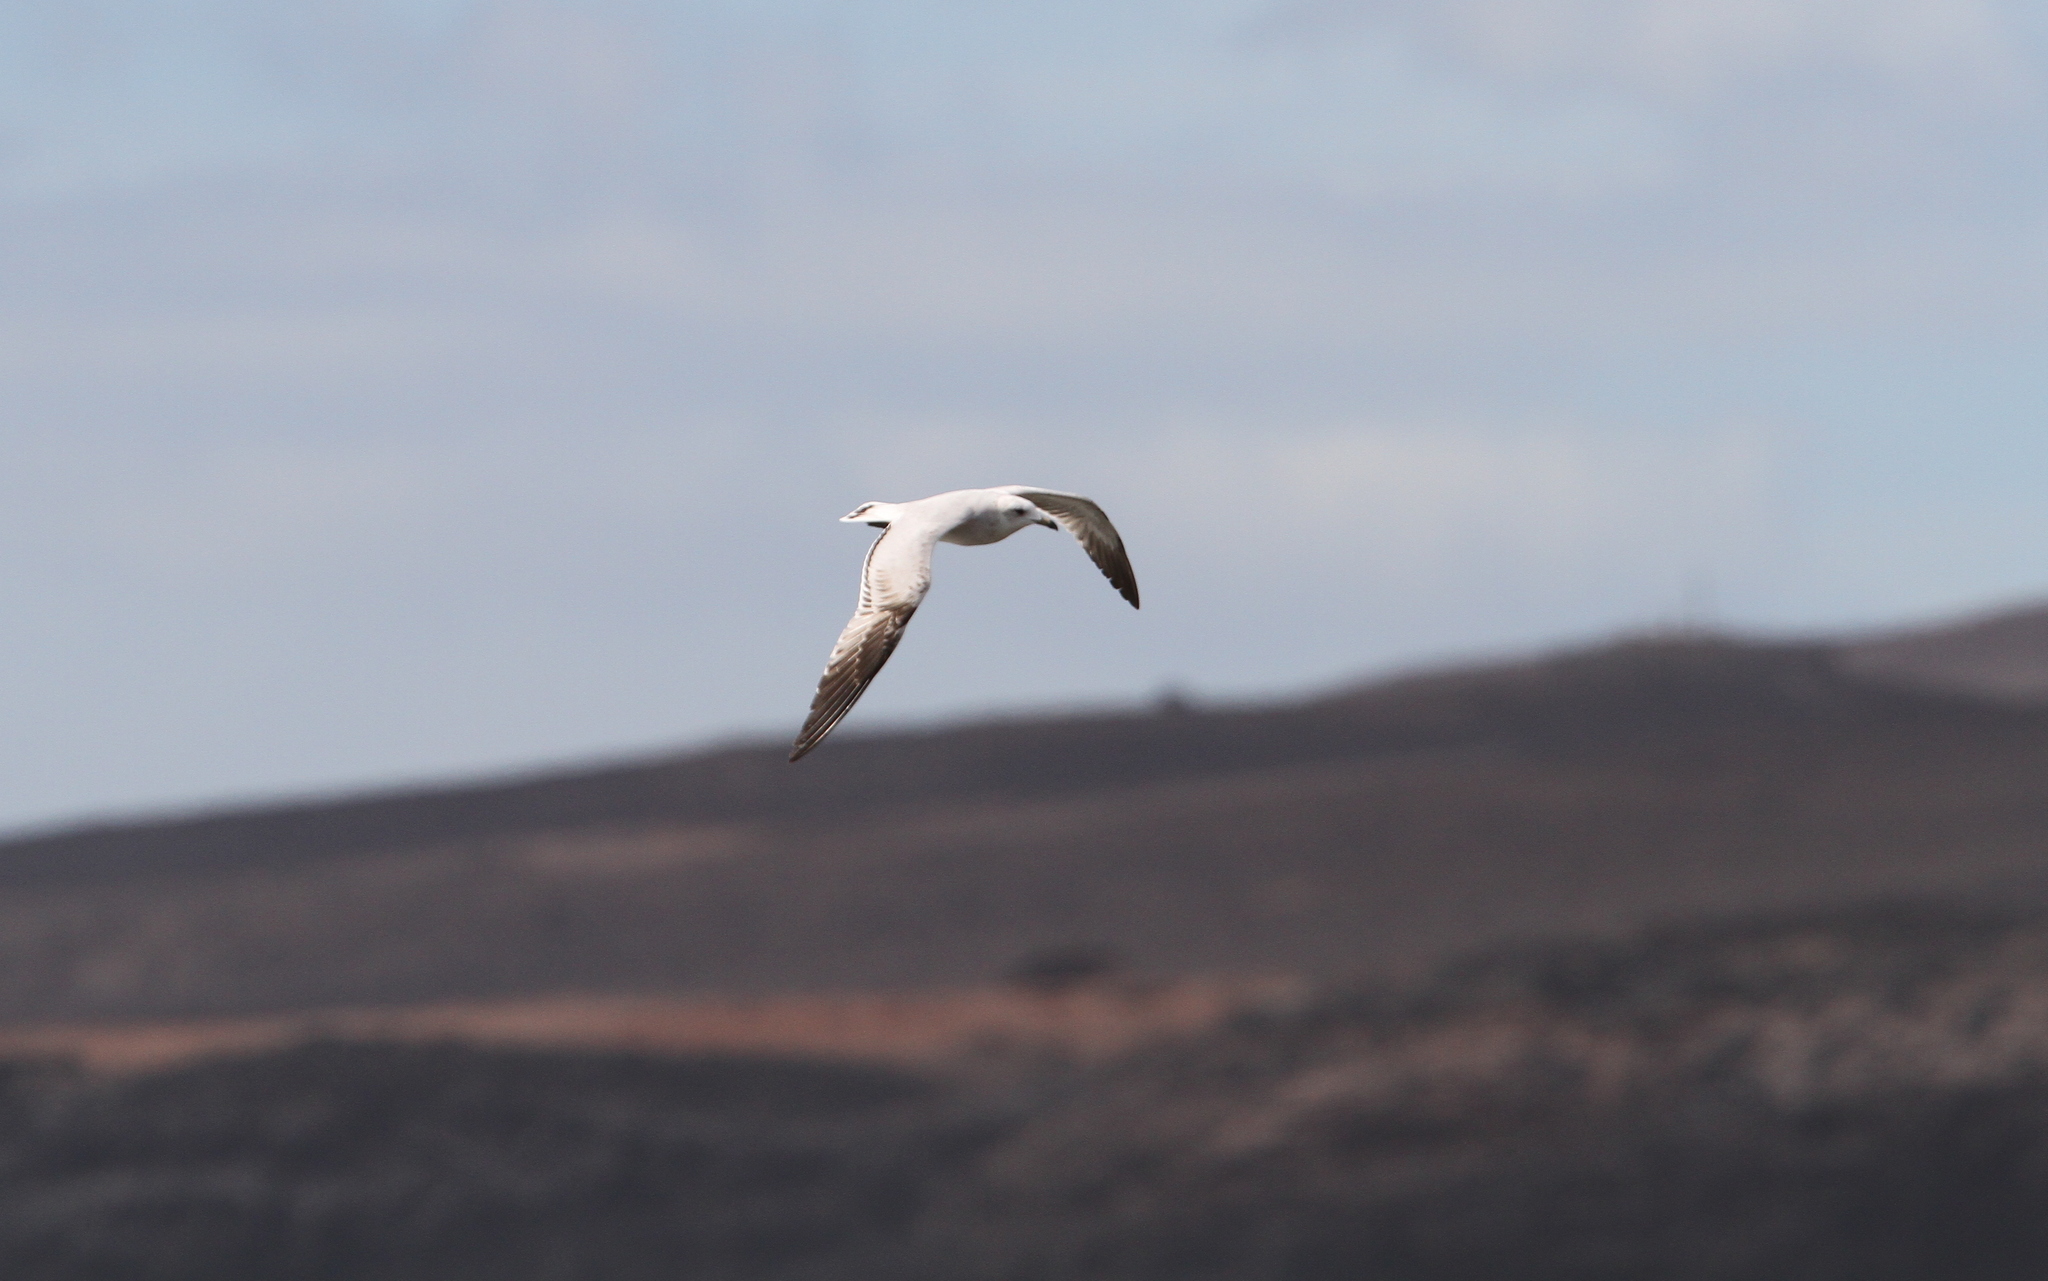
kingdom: Animalia
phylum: Chordata
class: Aves
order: Charadriiformes
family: Laridae
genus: Ichthyaetus
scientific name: Ichthyaetus audouinii
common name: Audouin's gull
